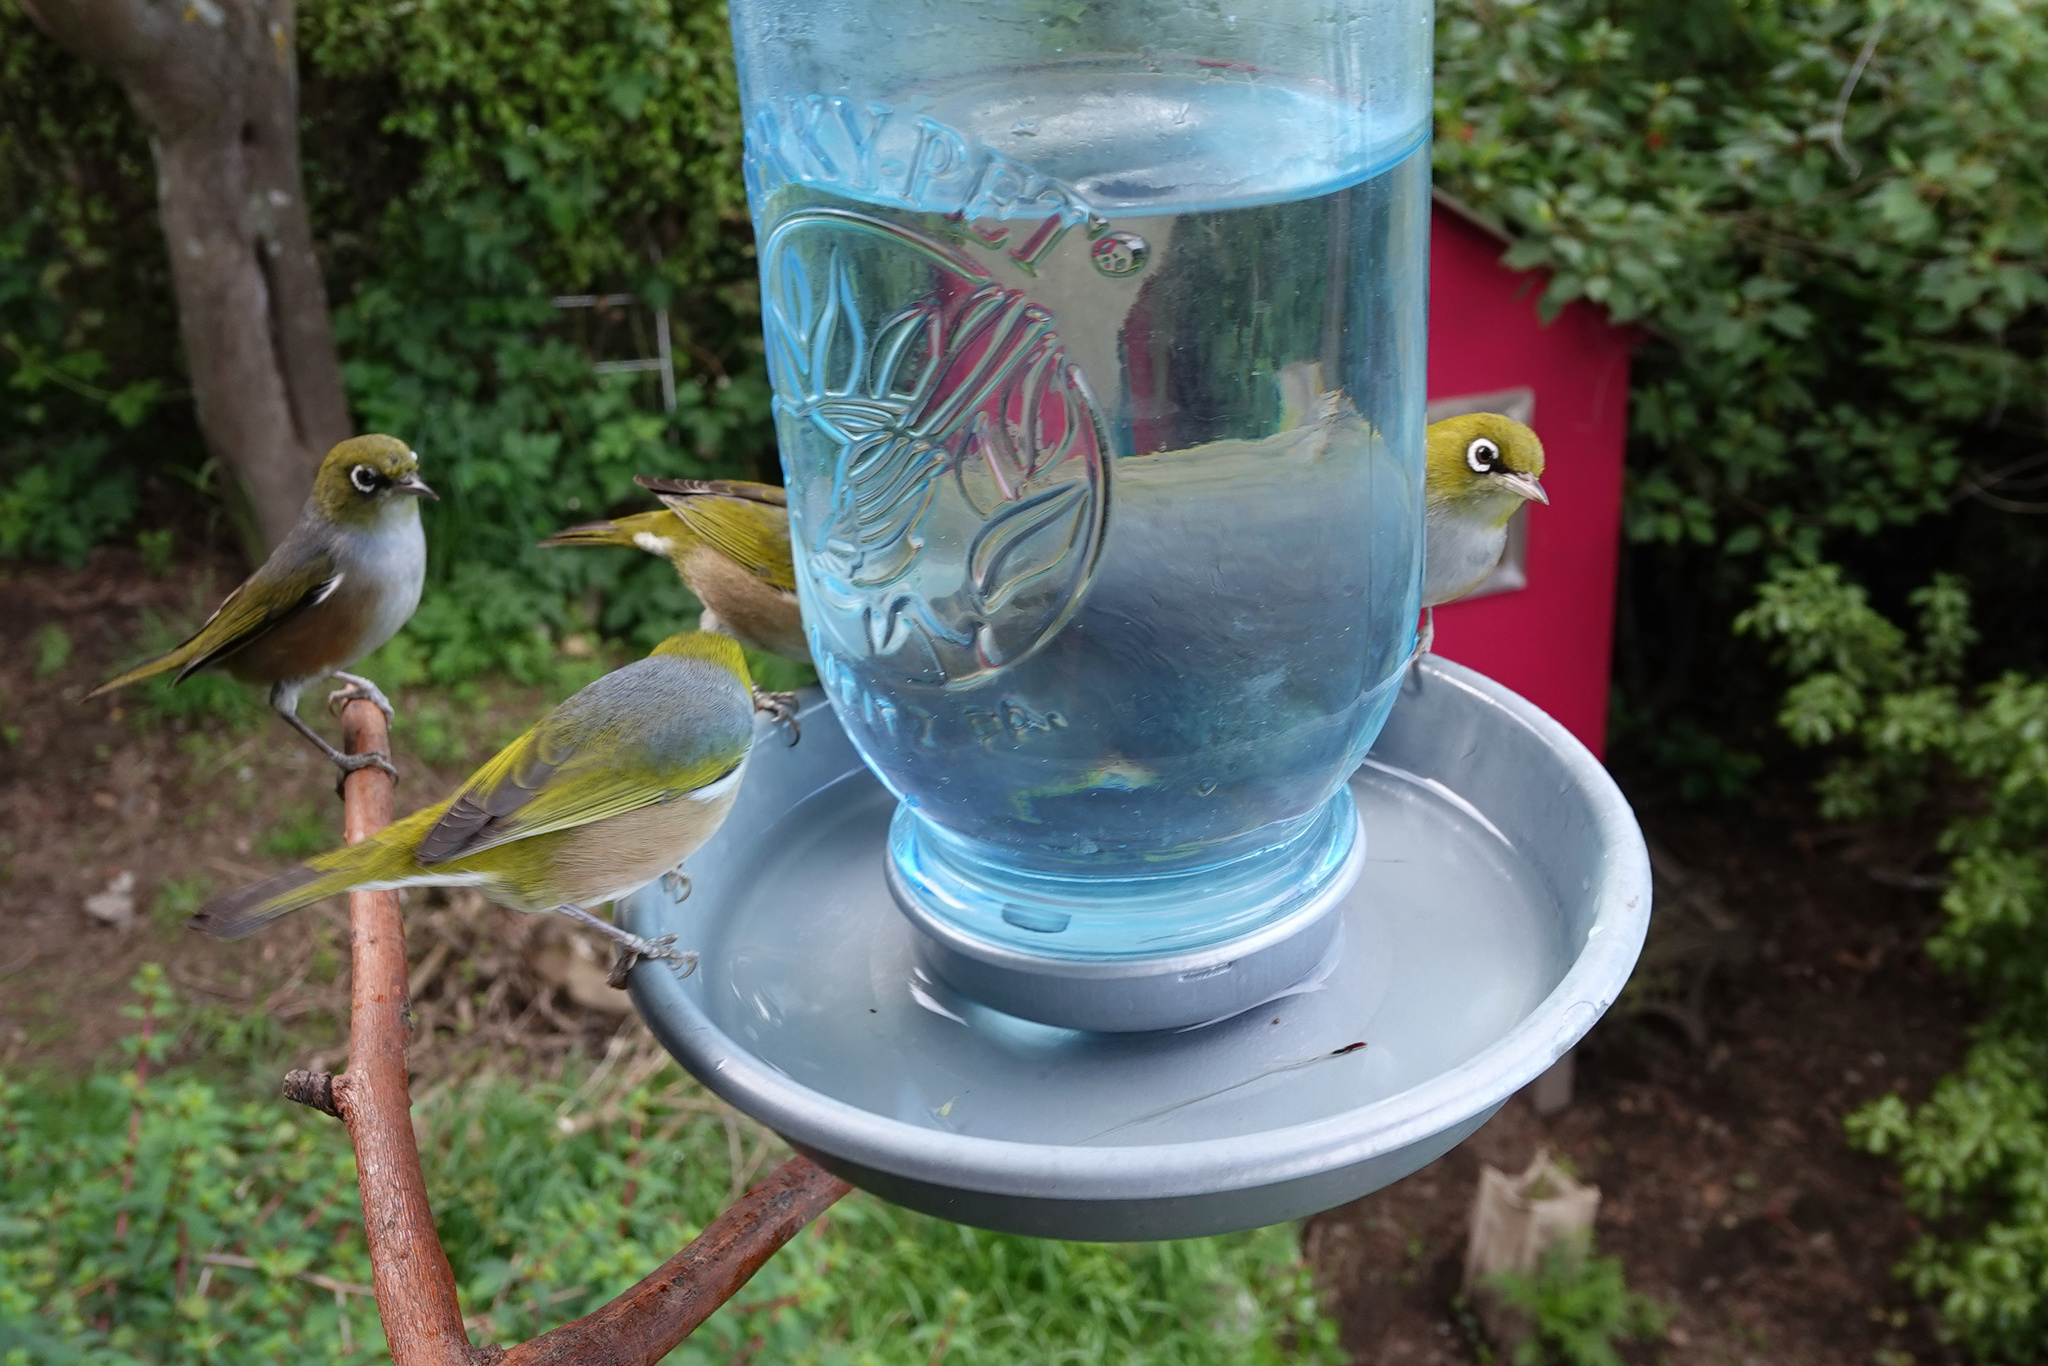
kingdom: Animalia
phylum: Chordata
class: Aves
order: Passeriformes
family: Zosteropidae
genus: Zosterops
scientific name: Zosterops lateralis
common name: Silvereye
